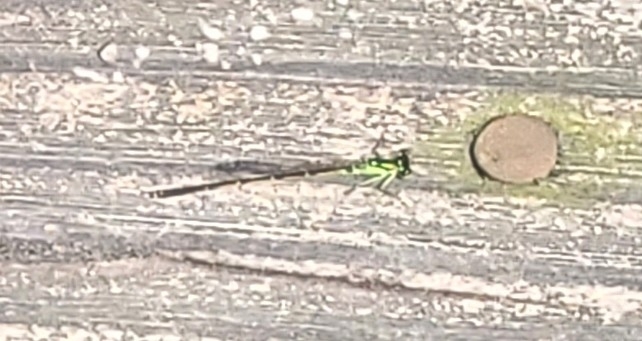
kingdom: Animalia
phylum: Arthropoda
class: Insecta
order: Odonata
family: Coenagrionidae
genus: Ischnura
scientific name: Ischnura posita
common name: Fragile forktail
